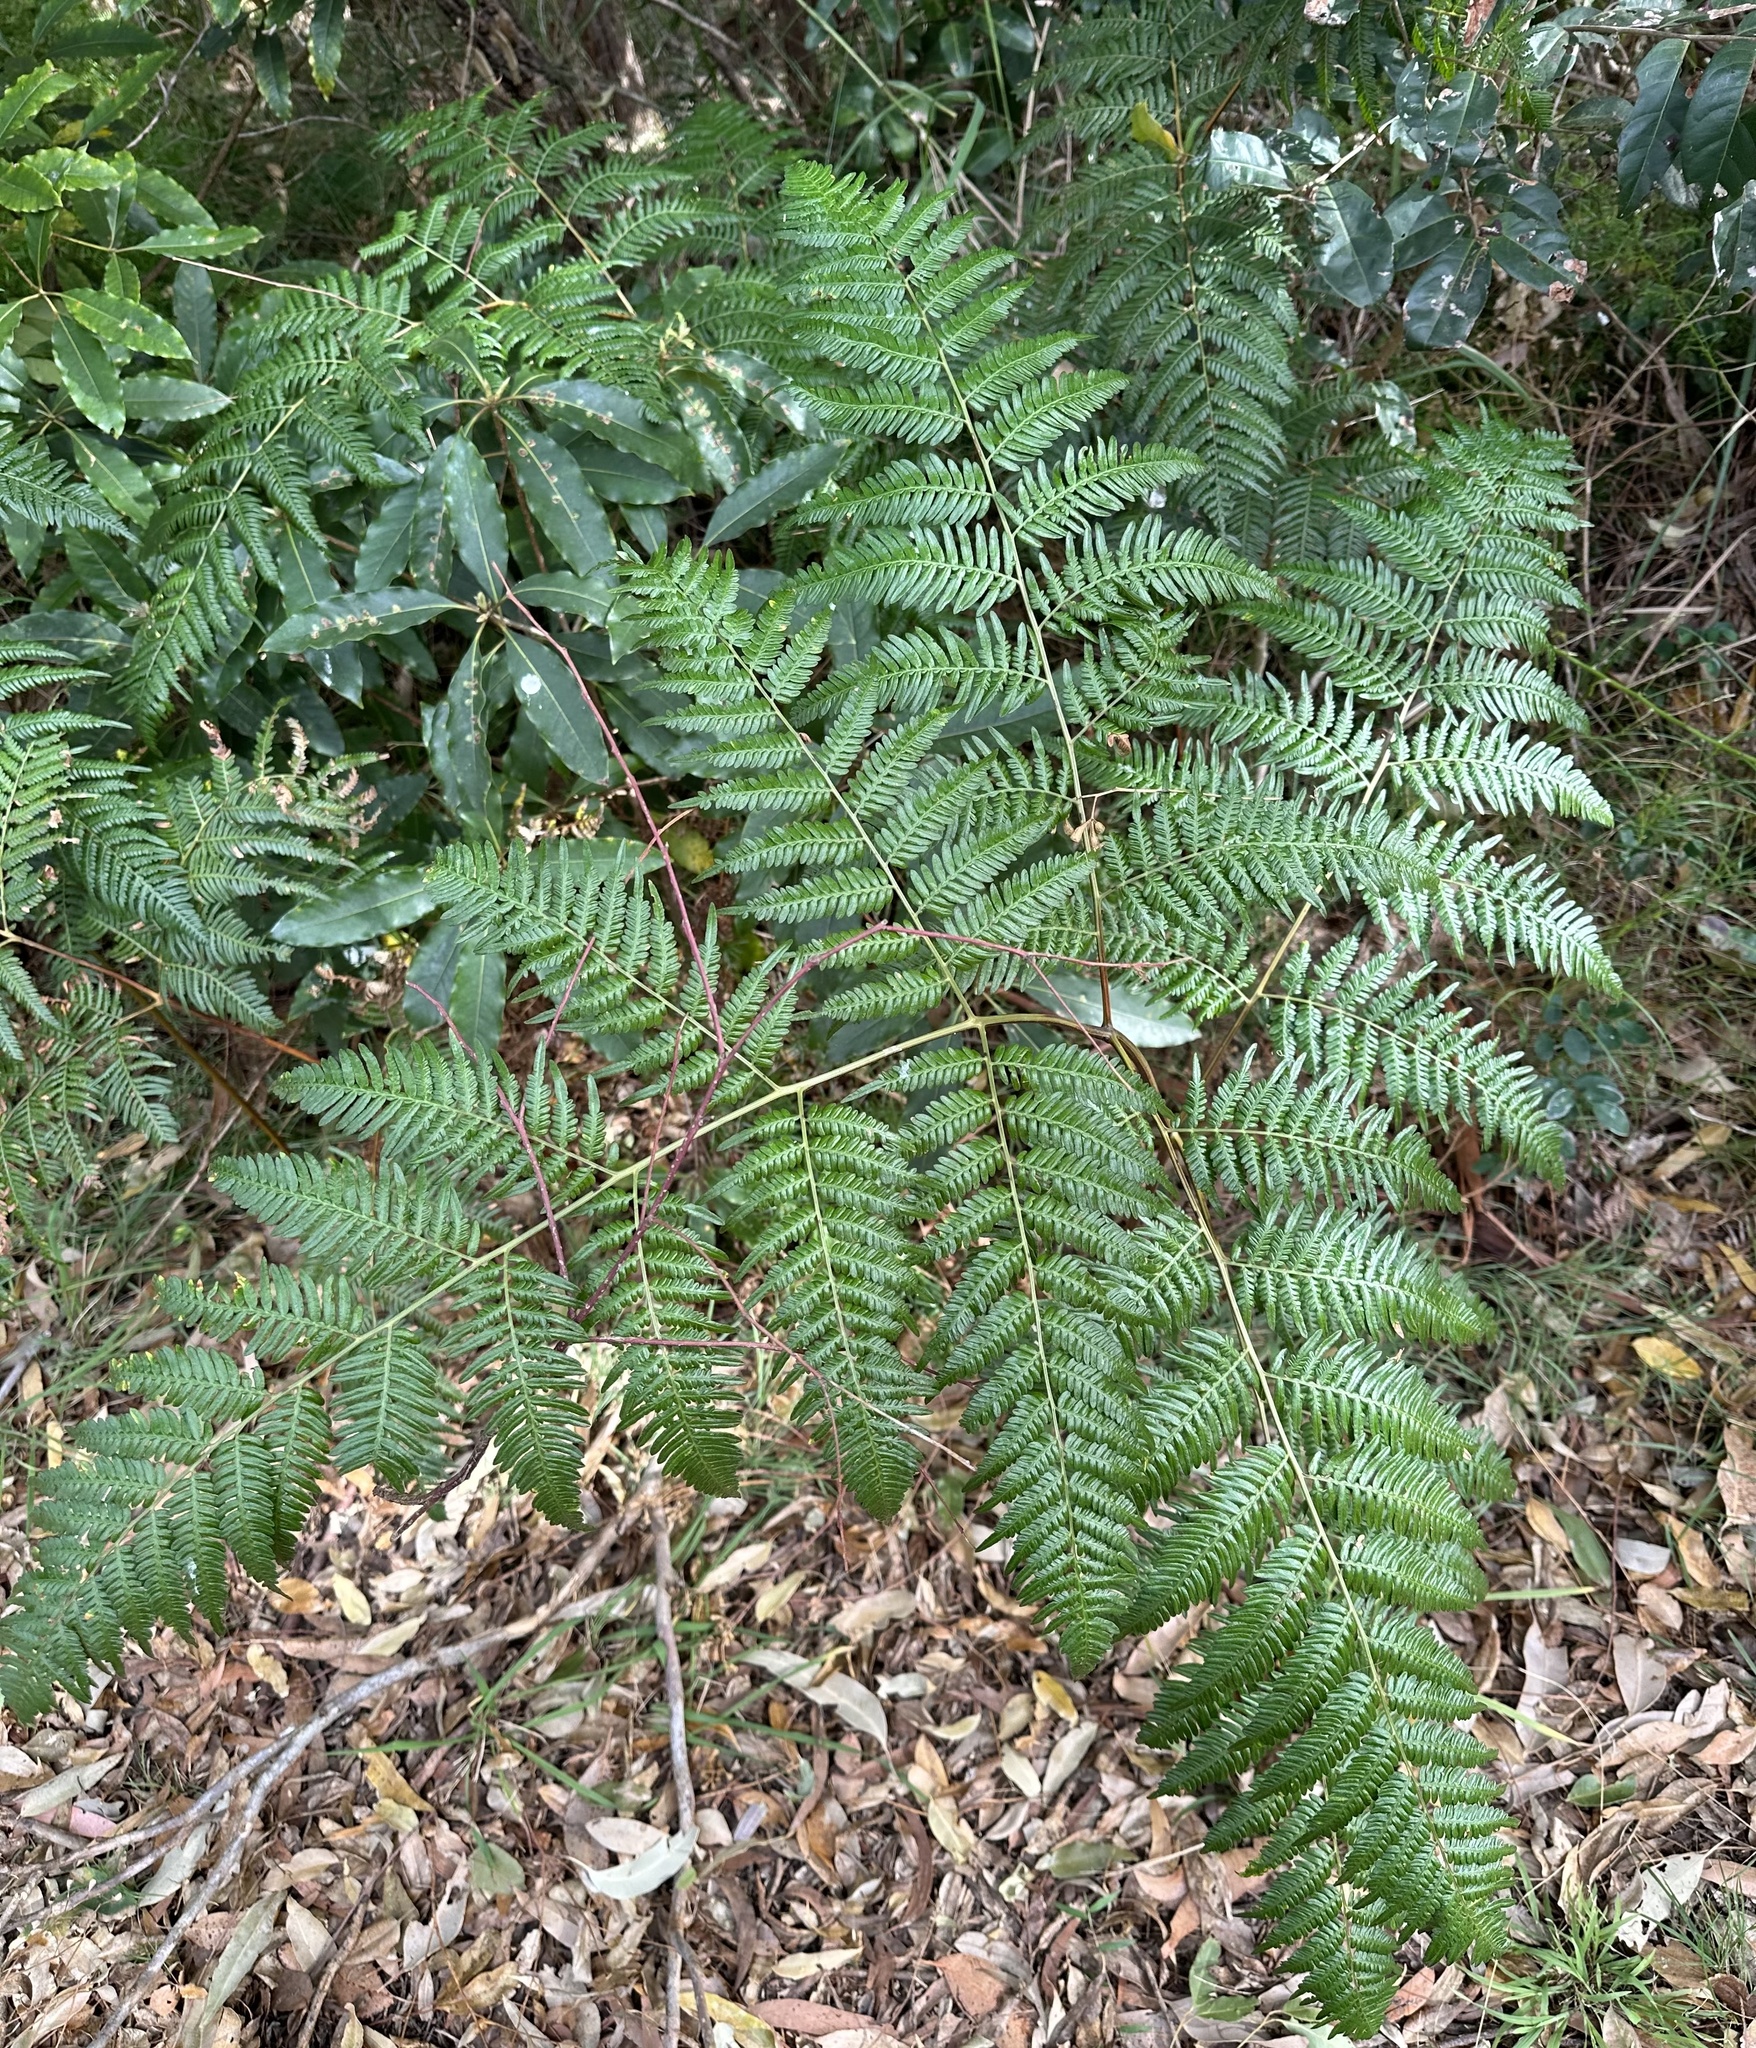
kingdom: Plantae
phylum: Tracheophyta
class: Polypodiopsida
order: Polypodiales
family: Dennstaedtiaceae
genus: Pteridium
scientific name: Pteridium esculentum
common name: Bracken fern
